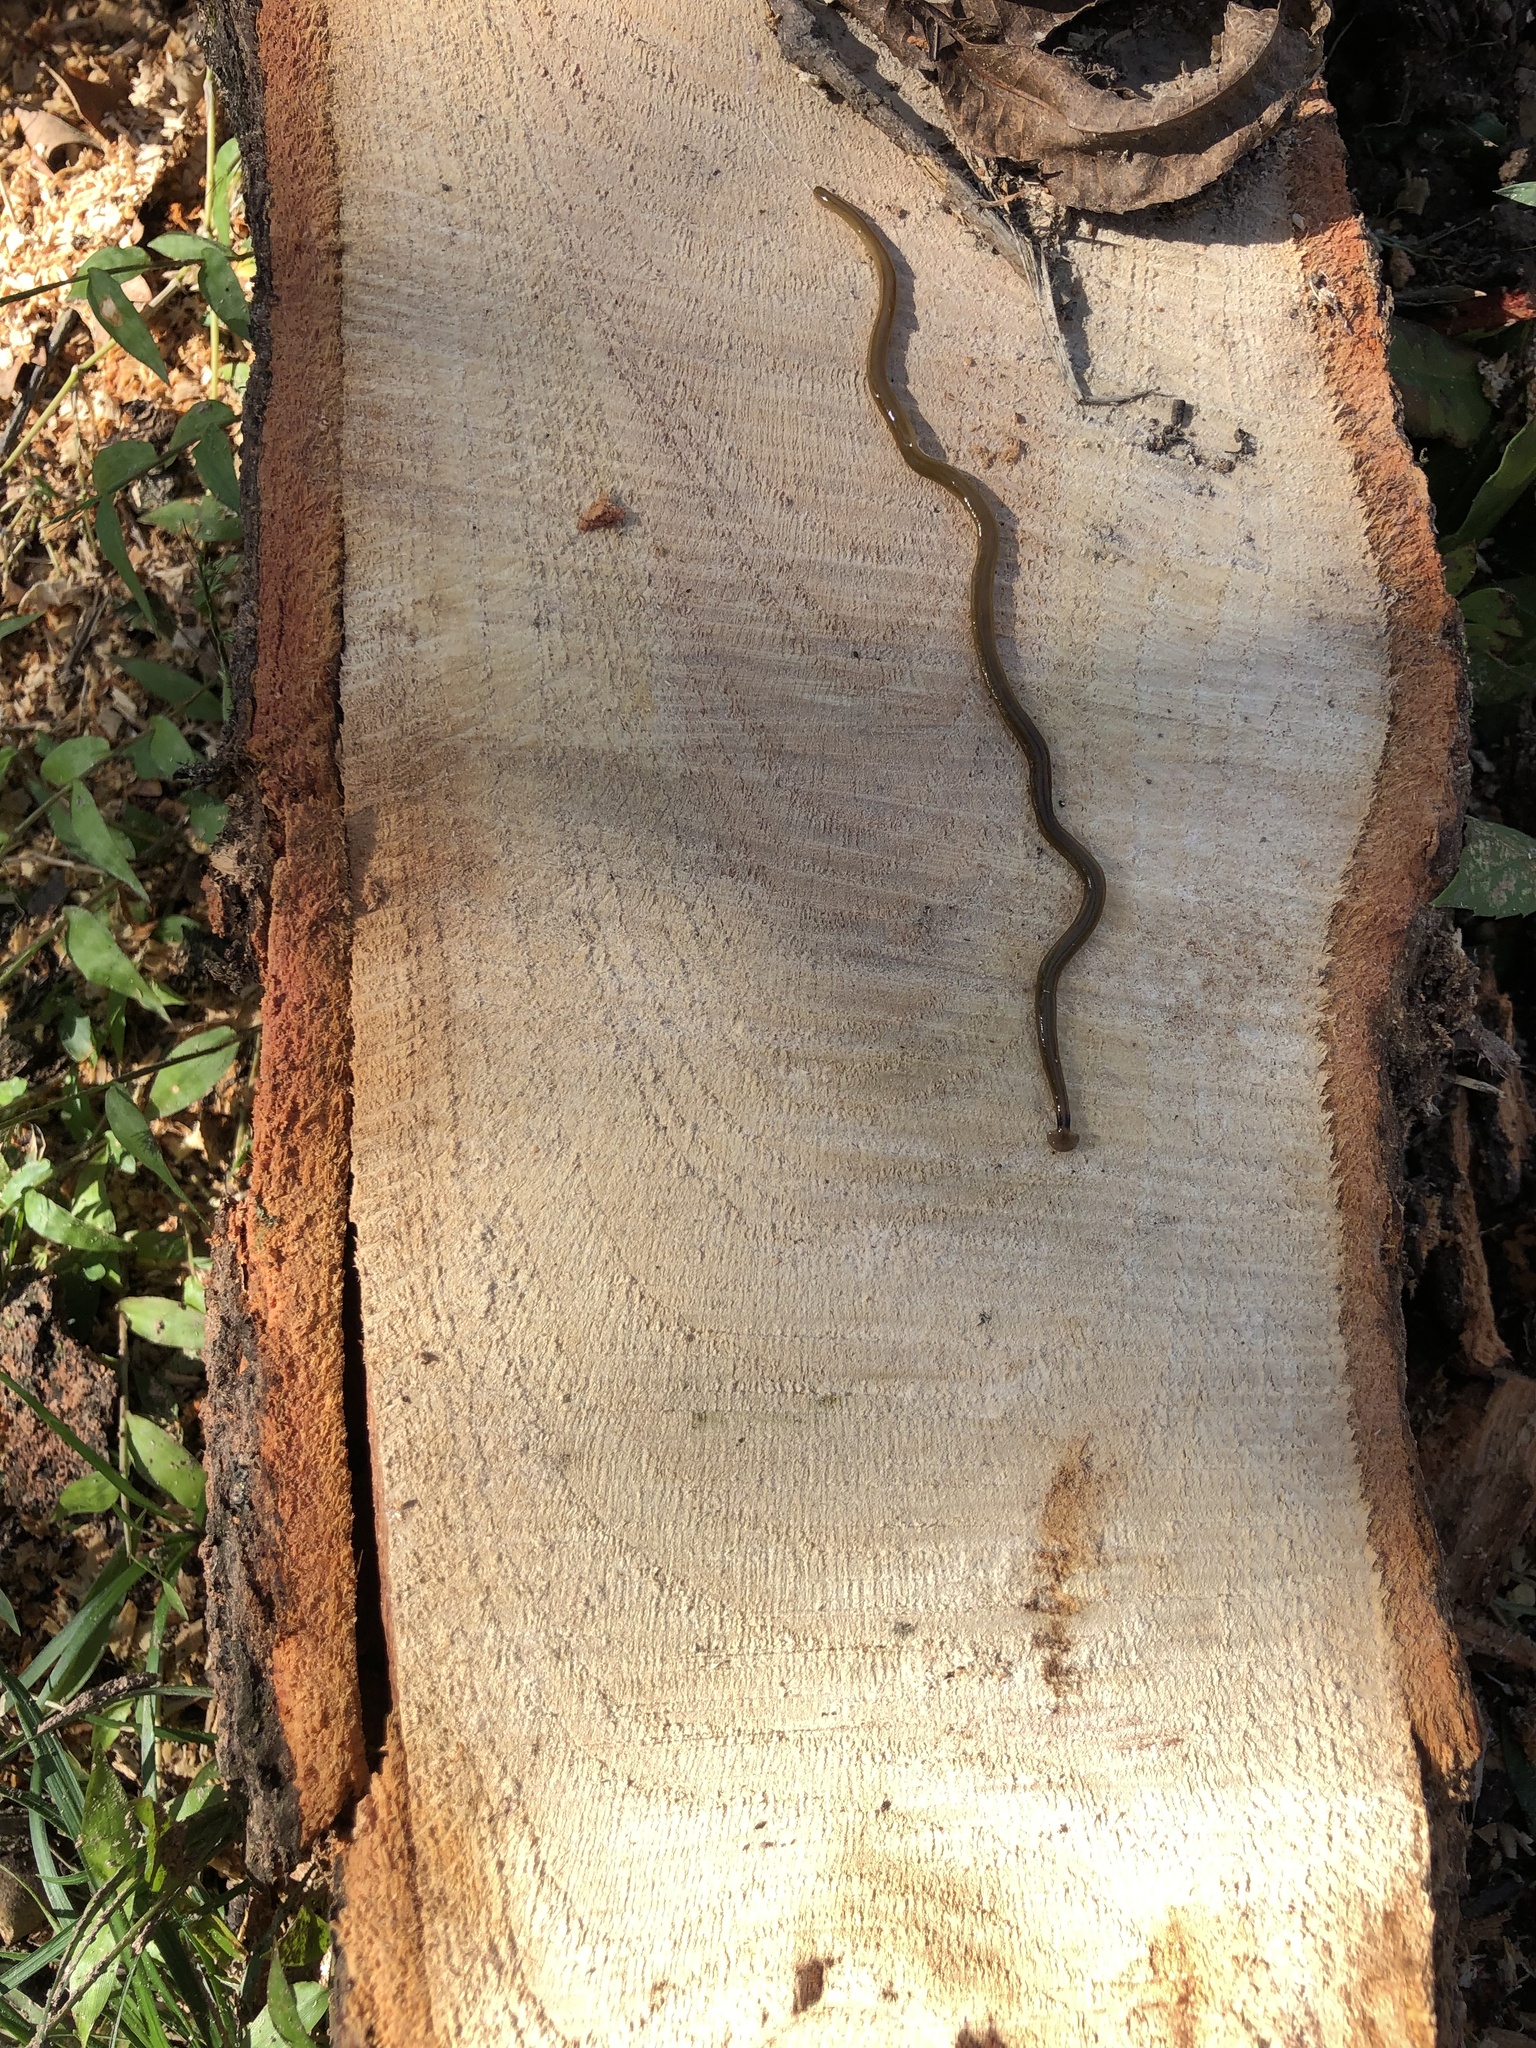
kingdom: Animalia
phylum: Platyhelminthes
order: Tricladida
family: Geoplanidae
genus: Bipalium
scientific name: Bipalium kewense
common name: Hammerhead flatworm
